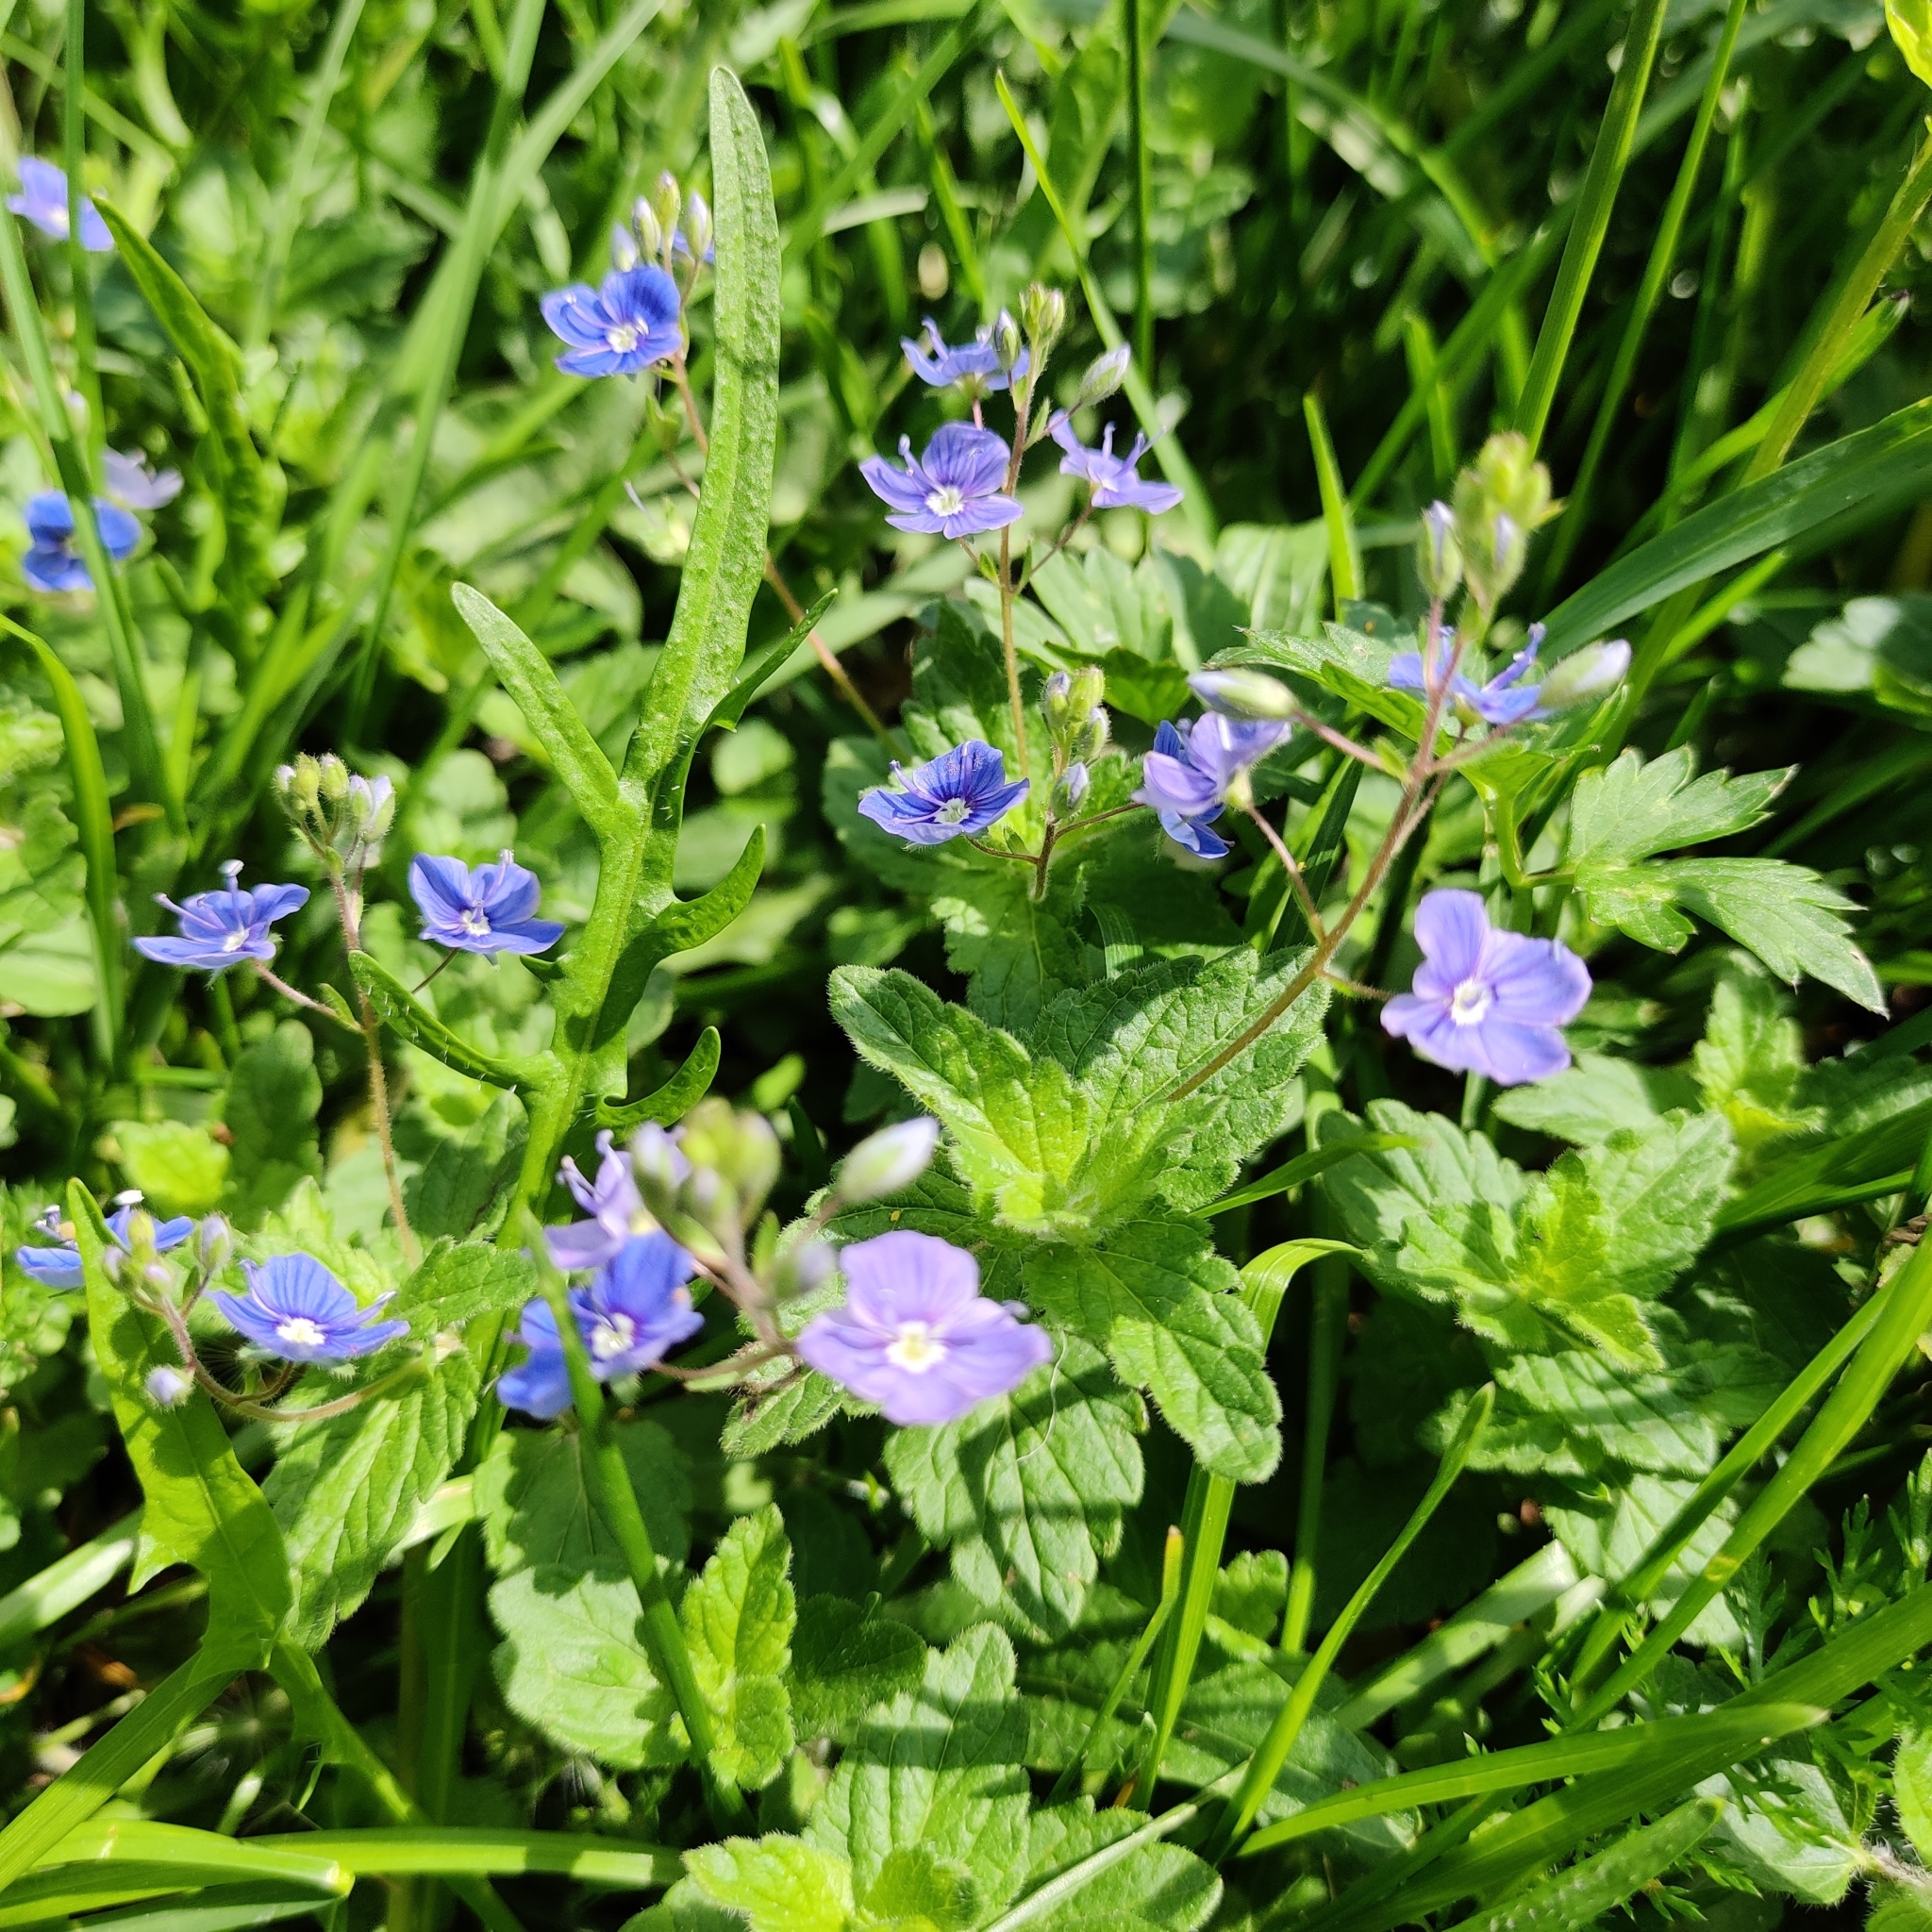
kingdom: Plantae
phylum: Tracheophyta
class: Magnoliopsida
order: Lamiales
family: Plantaginaceae
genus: Veronica
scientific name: Veronica chamaedrys
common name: Germander speedwell
